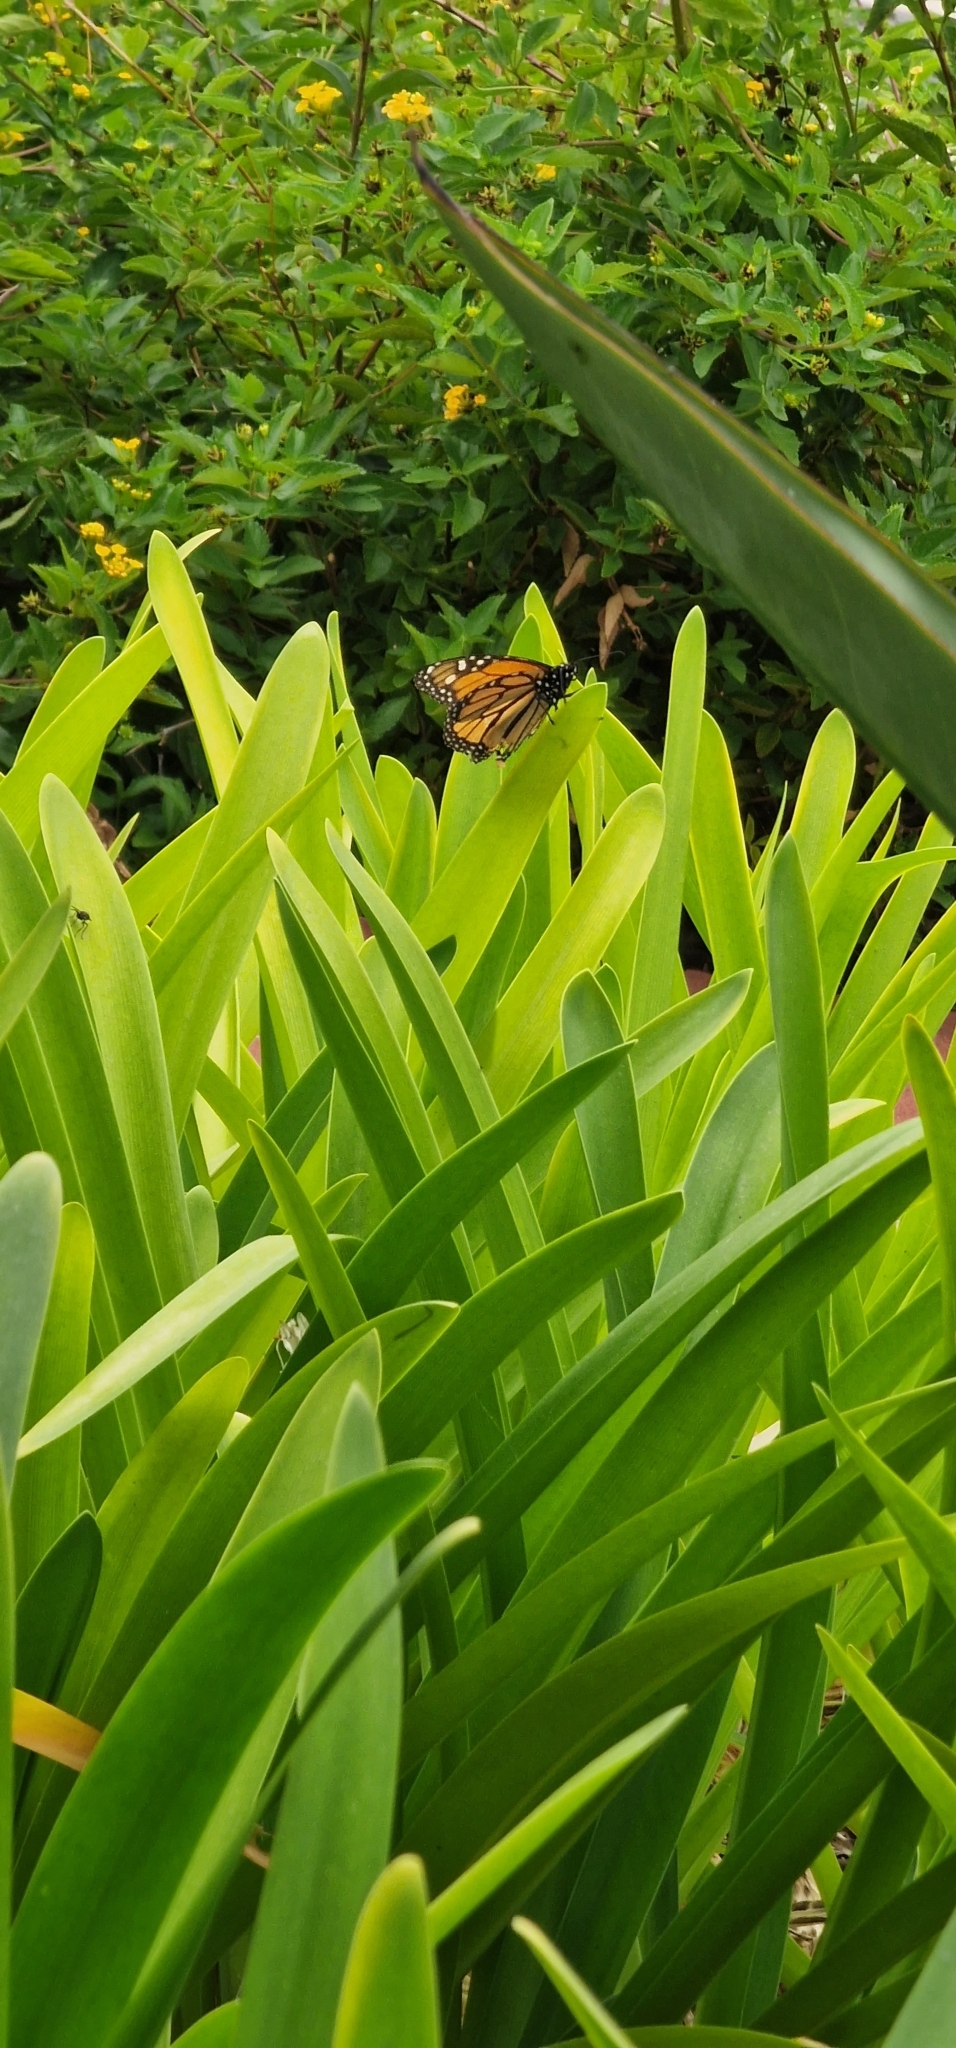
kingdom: Animalia
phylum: Arthropoda
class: Insecta
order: Lepidoptera
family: Nymphalidae
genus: Danaus
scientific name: Danaus plexippus
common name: Monarch
